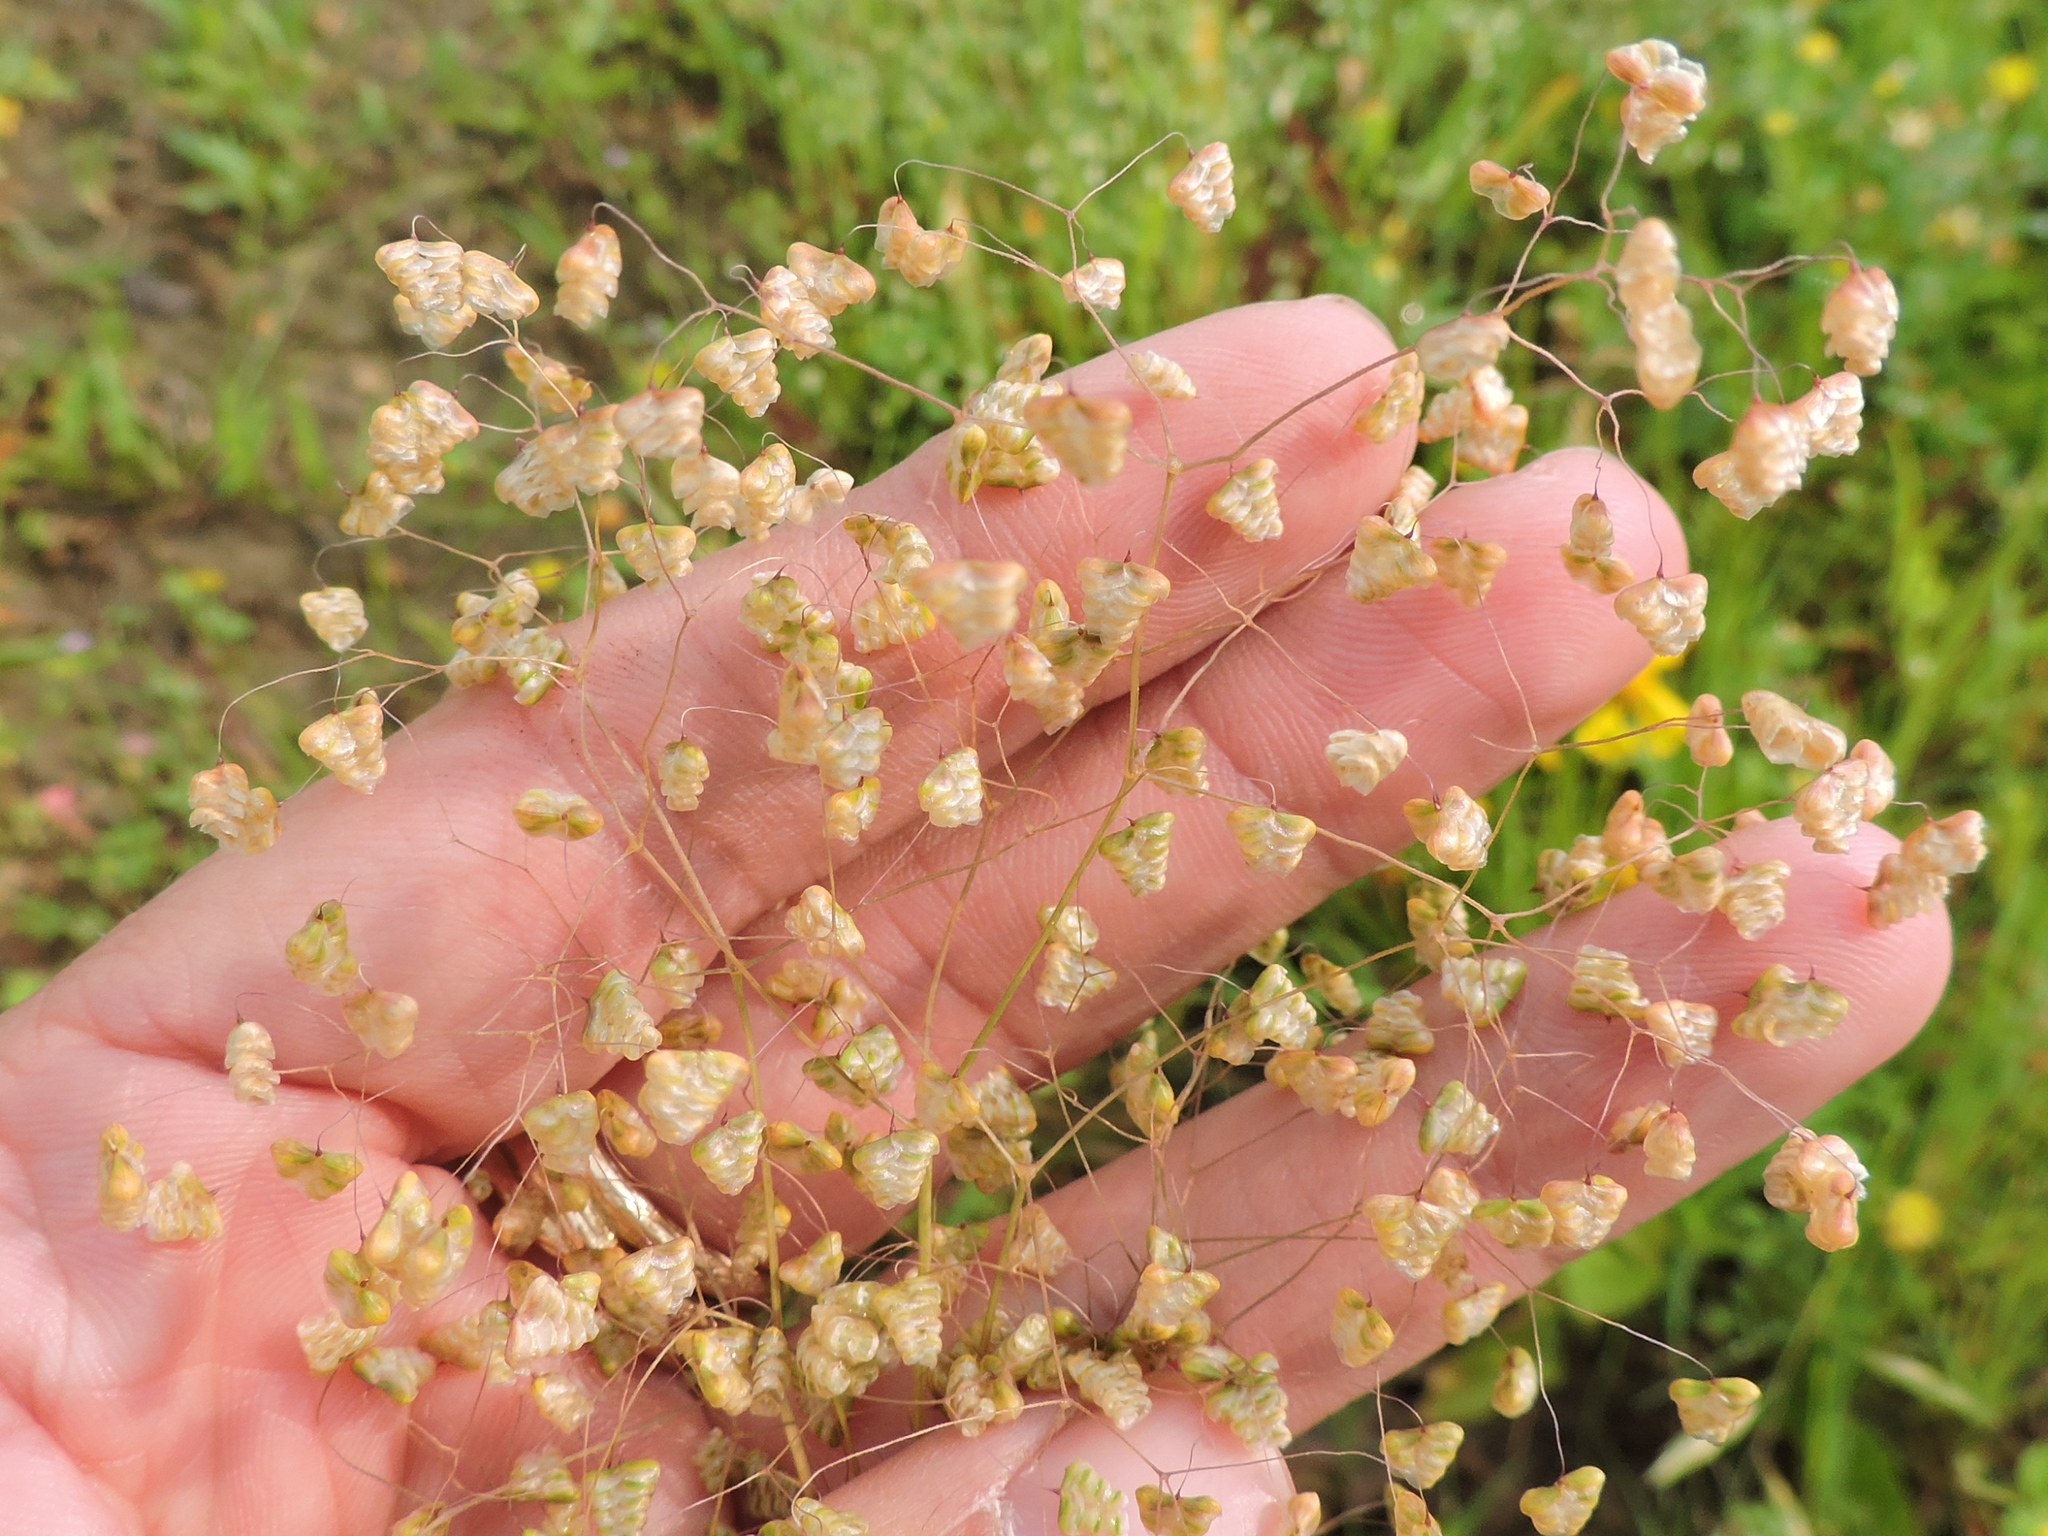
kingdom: Plantae
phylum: Tracheophyta
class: Liliopsida
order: Poales
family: Poaceae
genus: Briza
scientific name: Briza minor
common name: Lesser quaking-grass
